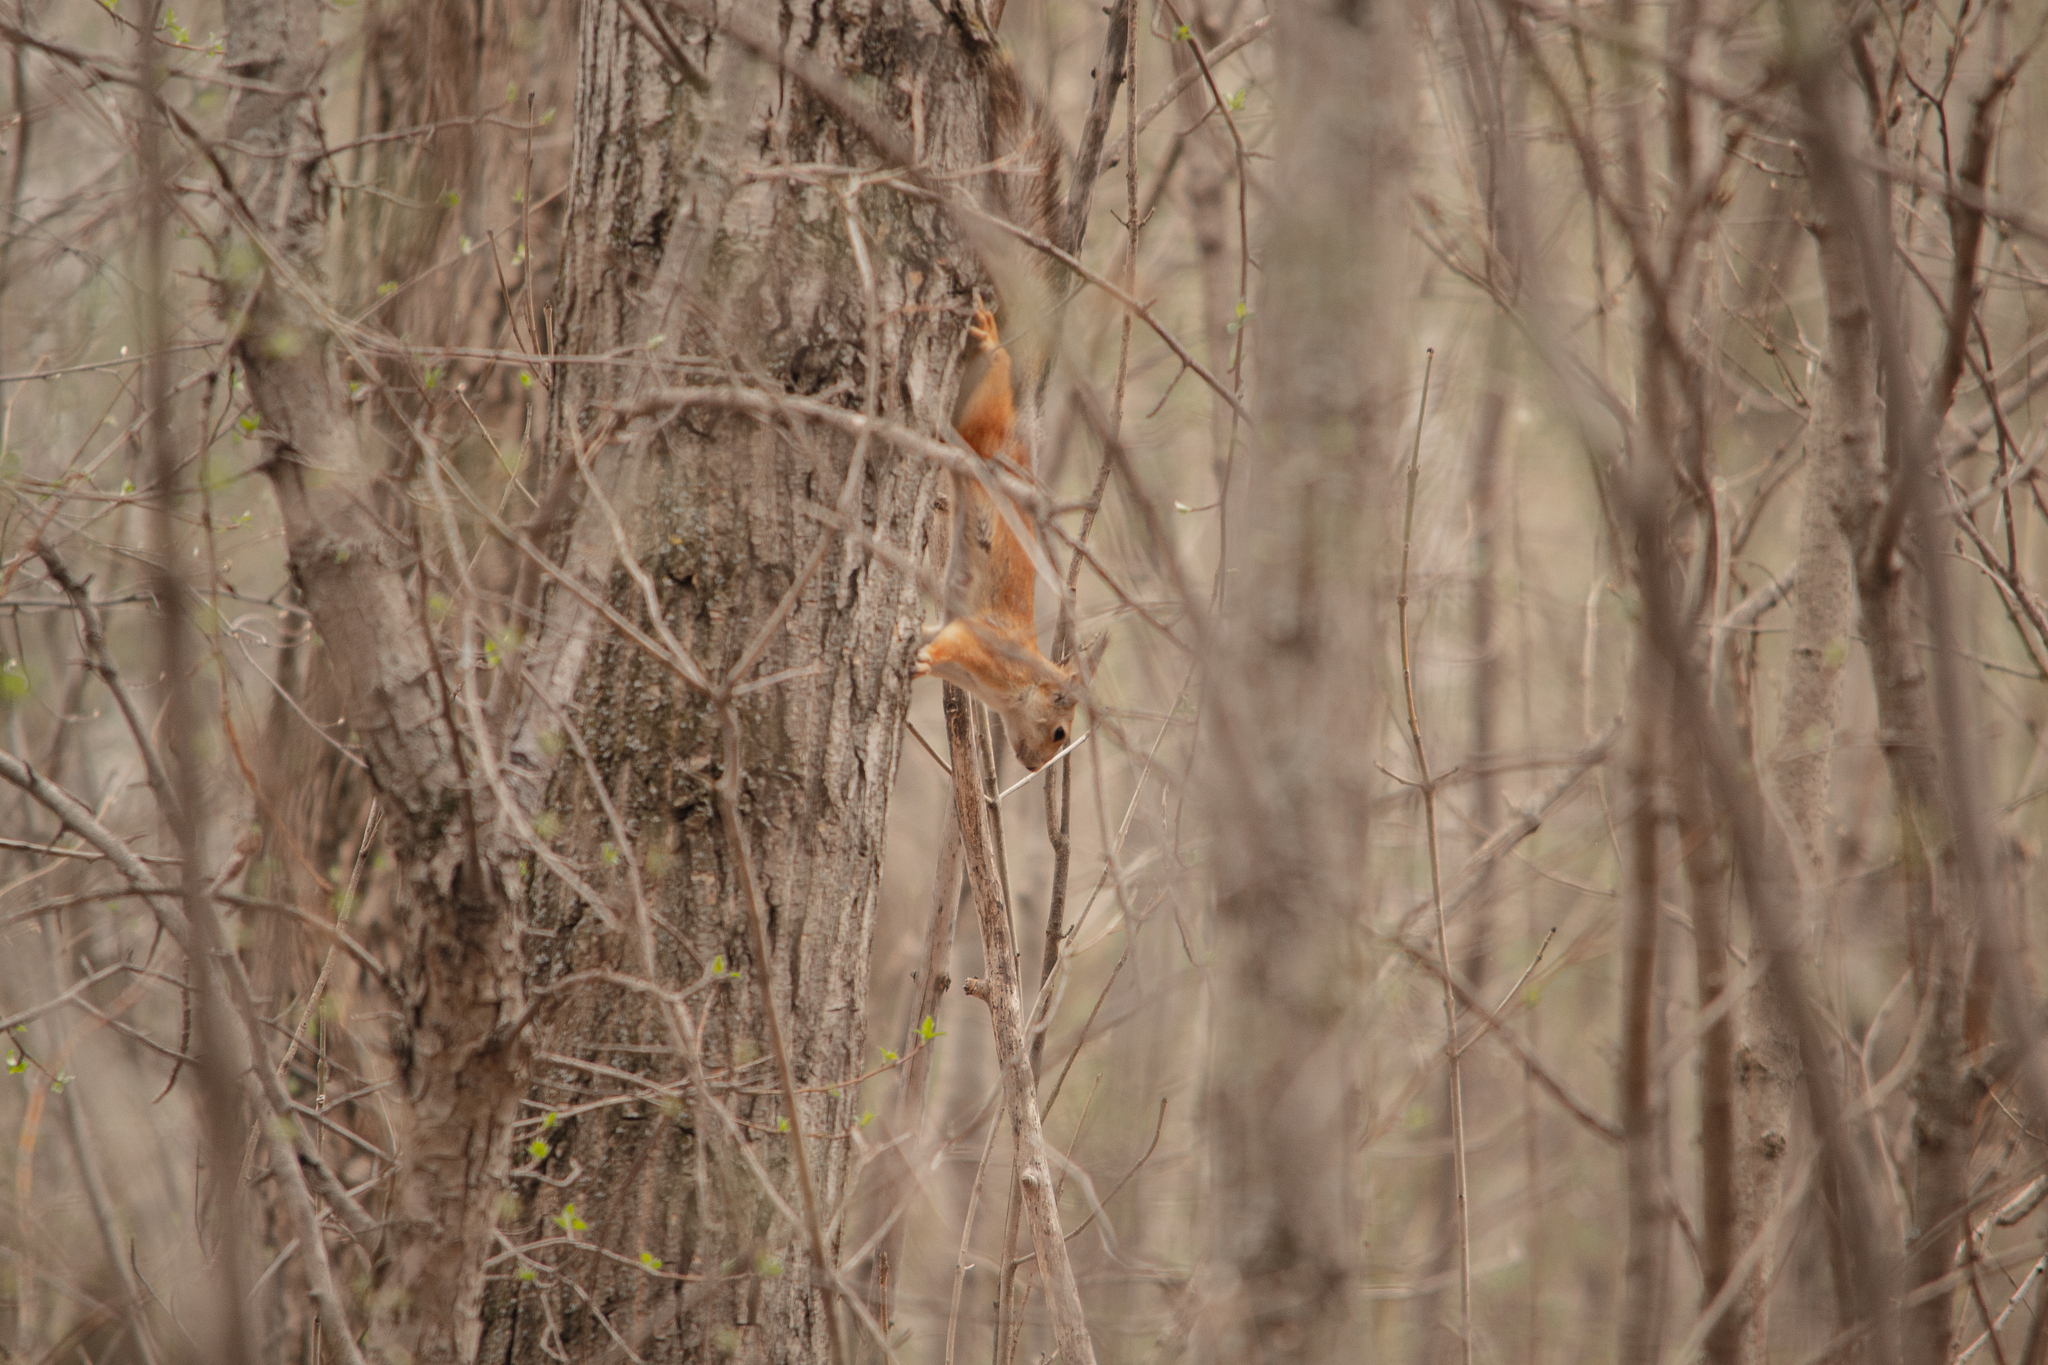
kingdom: Animalia
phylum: Chordata
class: Mammalia
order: Rodentia
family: Sciuridae
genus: Sciurus
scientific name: Sciurus vulgaris
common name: Eurasian red squirrel
